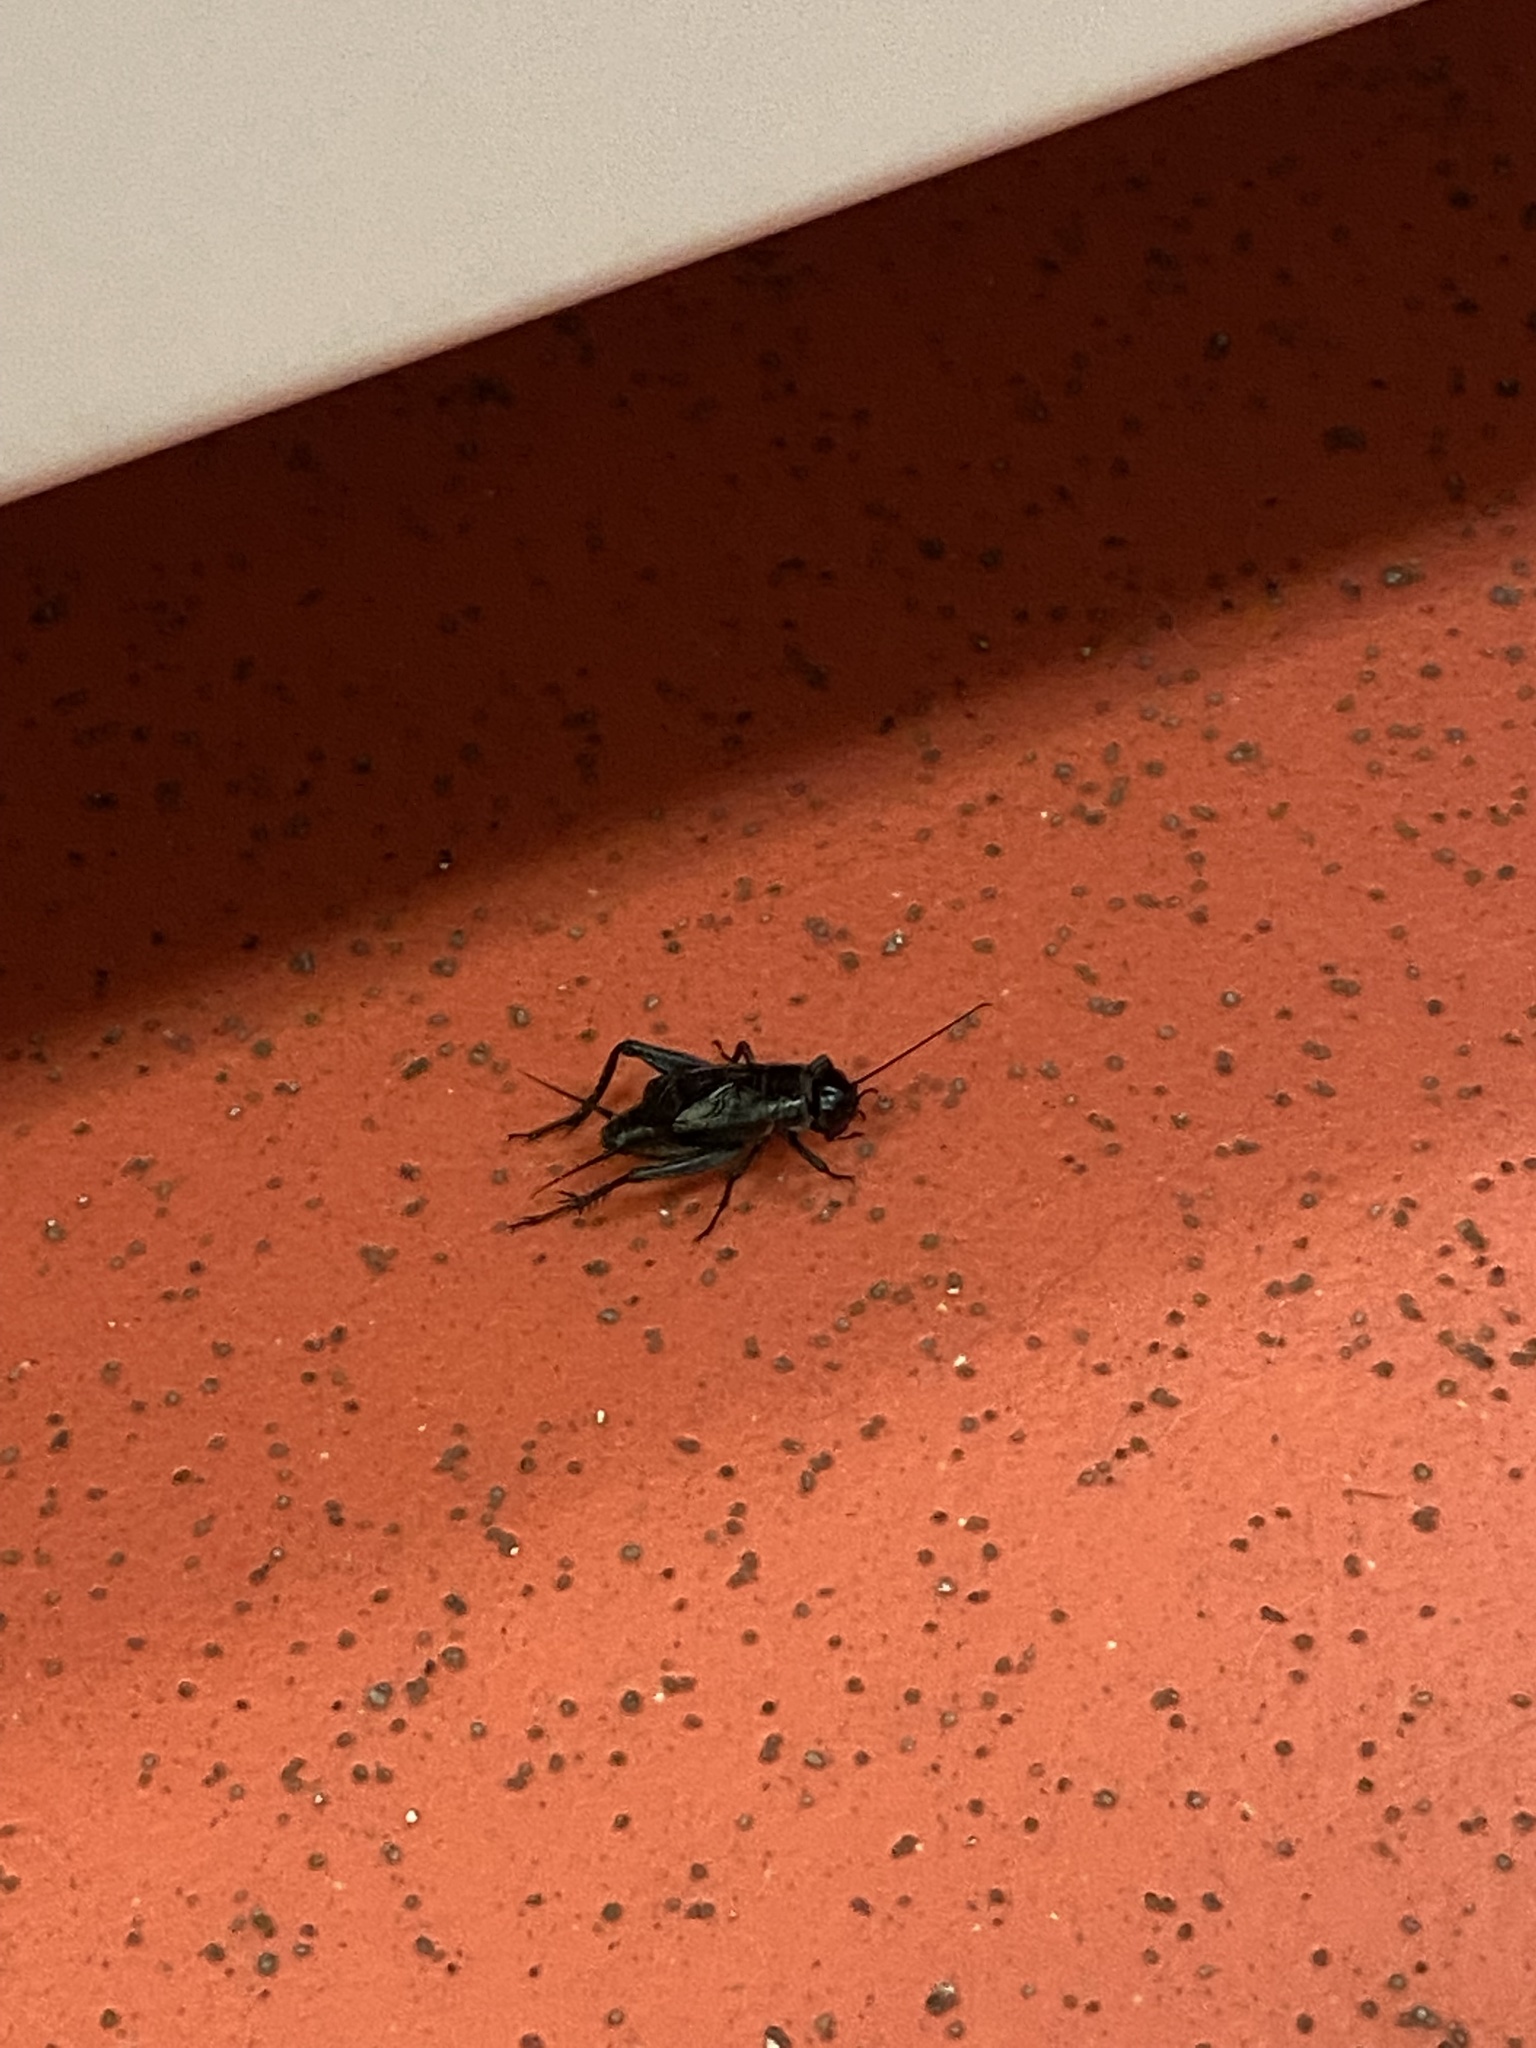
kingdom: Animalia
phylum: Arthropoda
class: Insecta
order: Orthoptera
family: Gryllidae
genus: Gryllus
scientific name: Gryllus pennsylvanicus
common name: Fall field cricket
